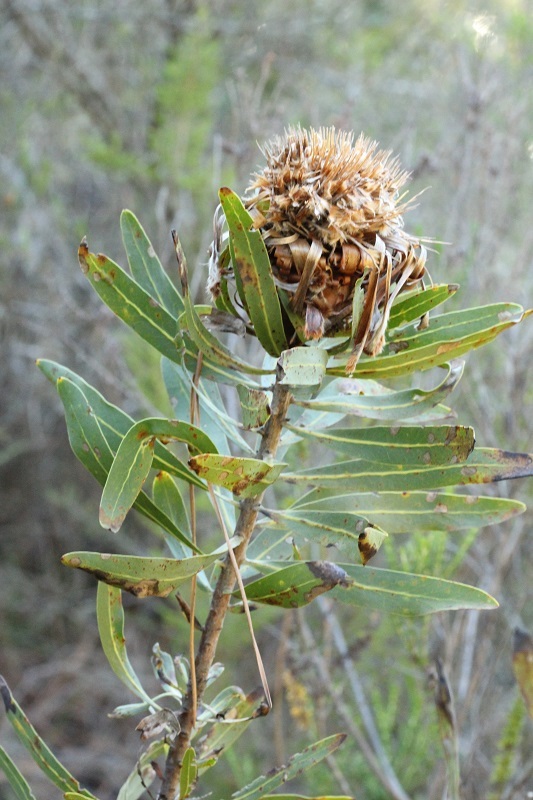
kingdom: Plantae
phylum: Tracheophyta
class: Magnoliopsida
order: Proteales
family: Proteaceae
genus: Protea
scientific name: Protea neriifolia
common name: Blue sugarbush
